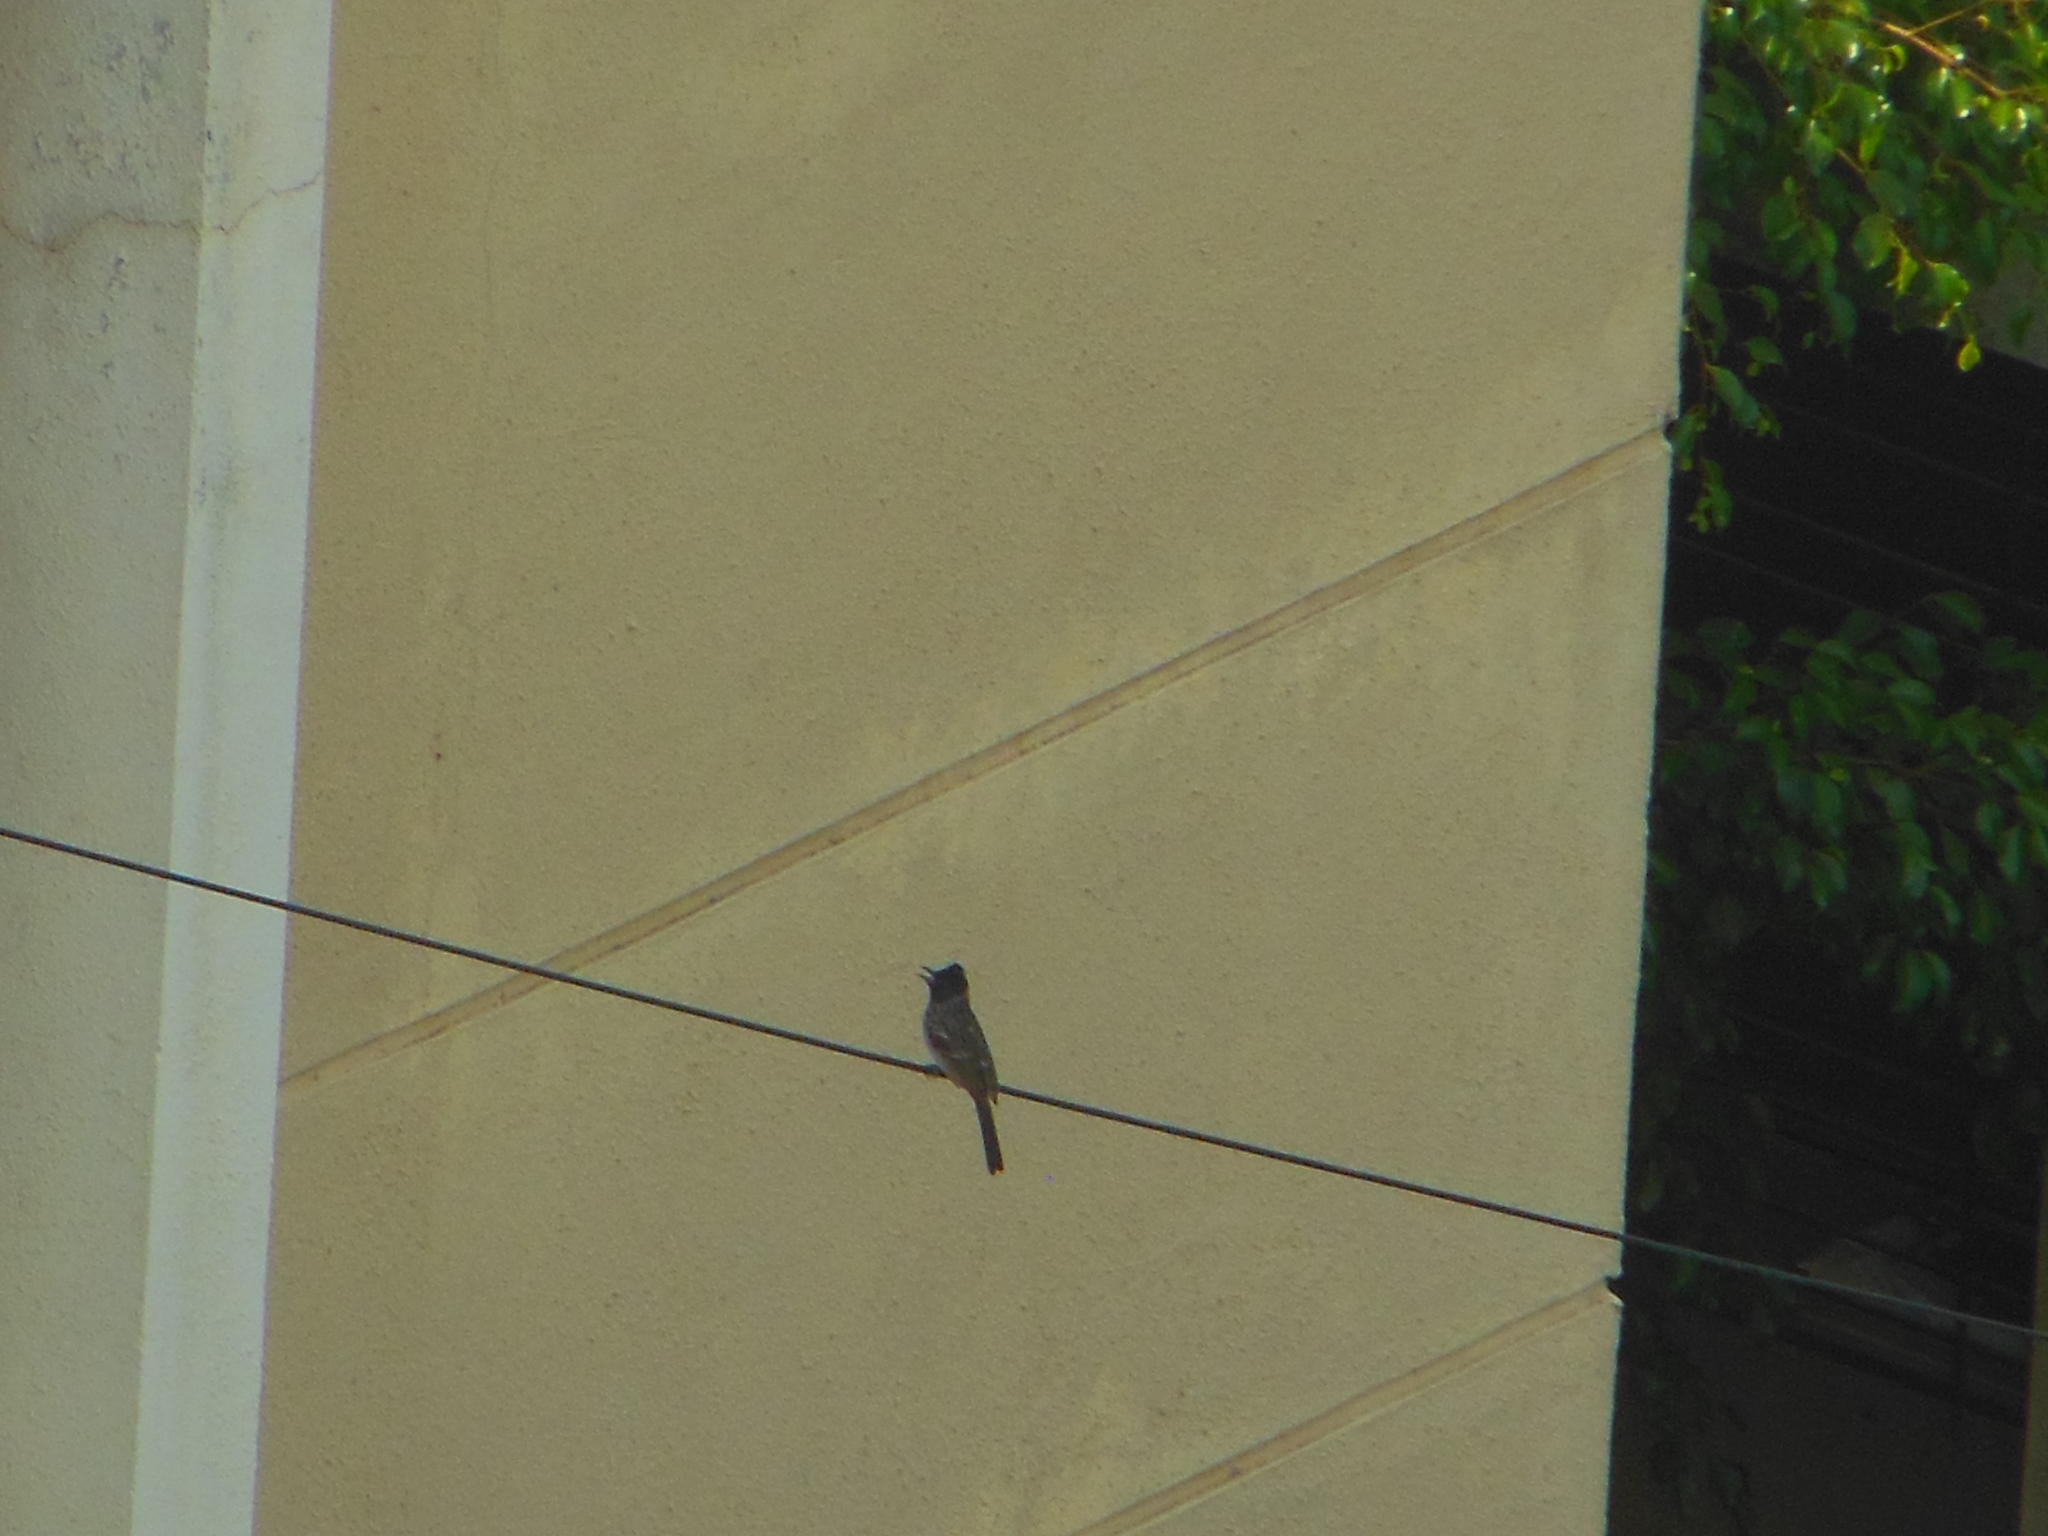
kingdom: Animalia
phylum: Chordata
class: Aves
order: Passeriformes
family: Pycnonotidae
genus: Pycnonotus
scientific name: Pycnonotus cafer
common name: Red-vented bulbul
